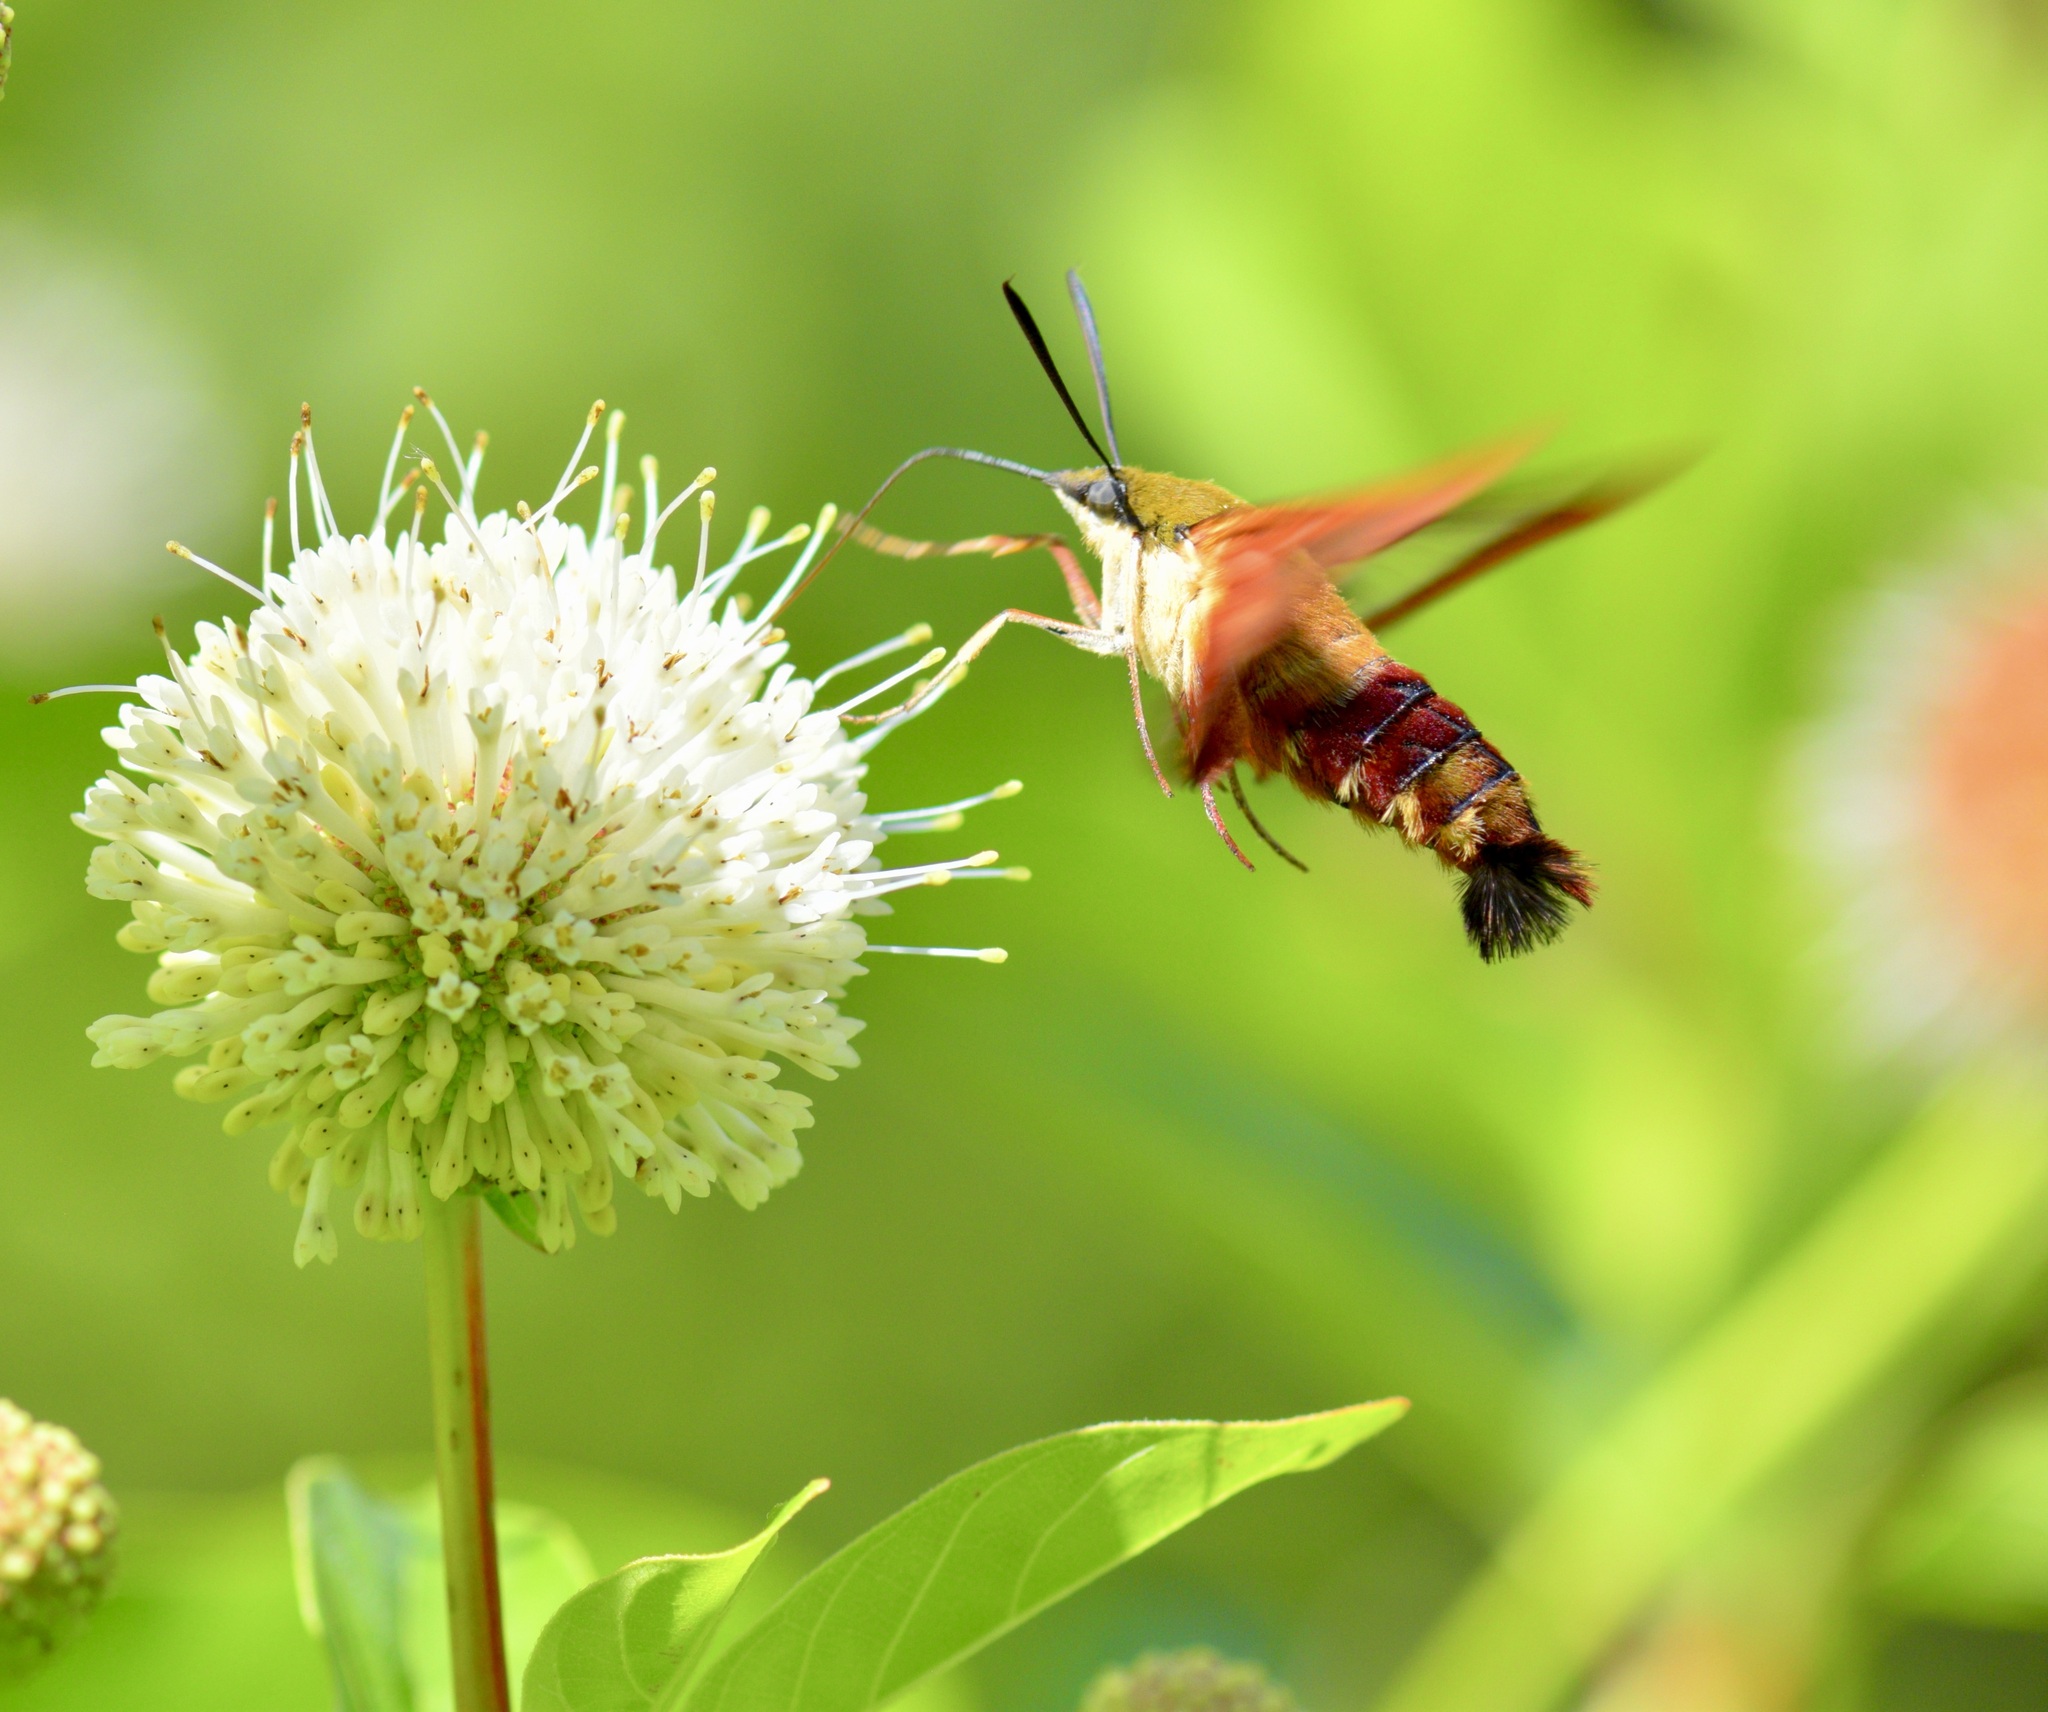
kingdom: Animalia
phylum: Arthropoda
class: Insecta
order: Lepidoptera
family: Sphingidae
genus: Hemaris
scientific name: Hemaris thysbe
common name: Common clear-wing
